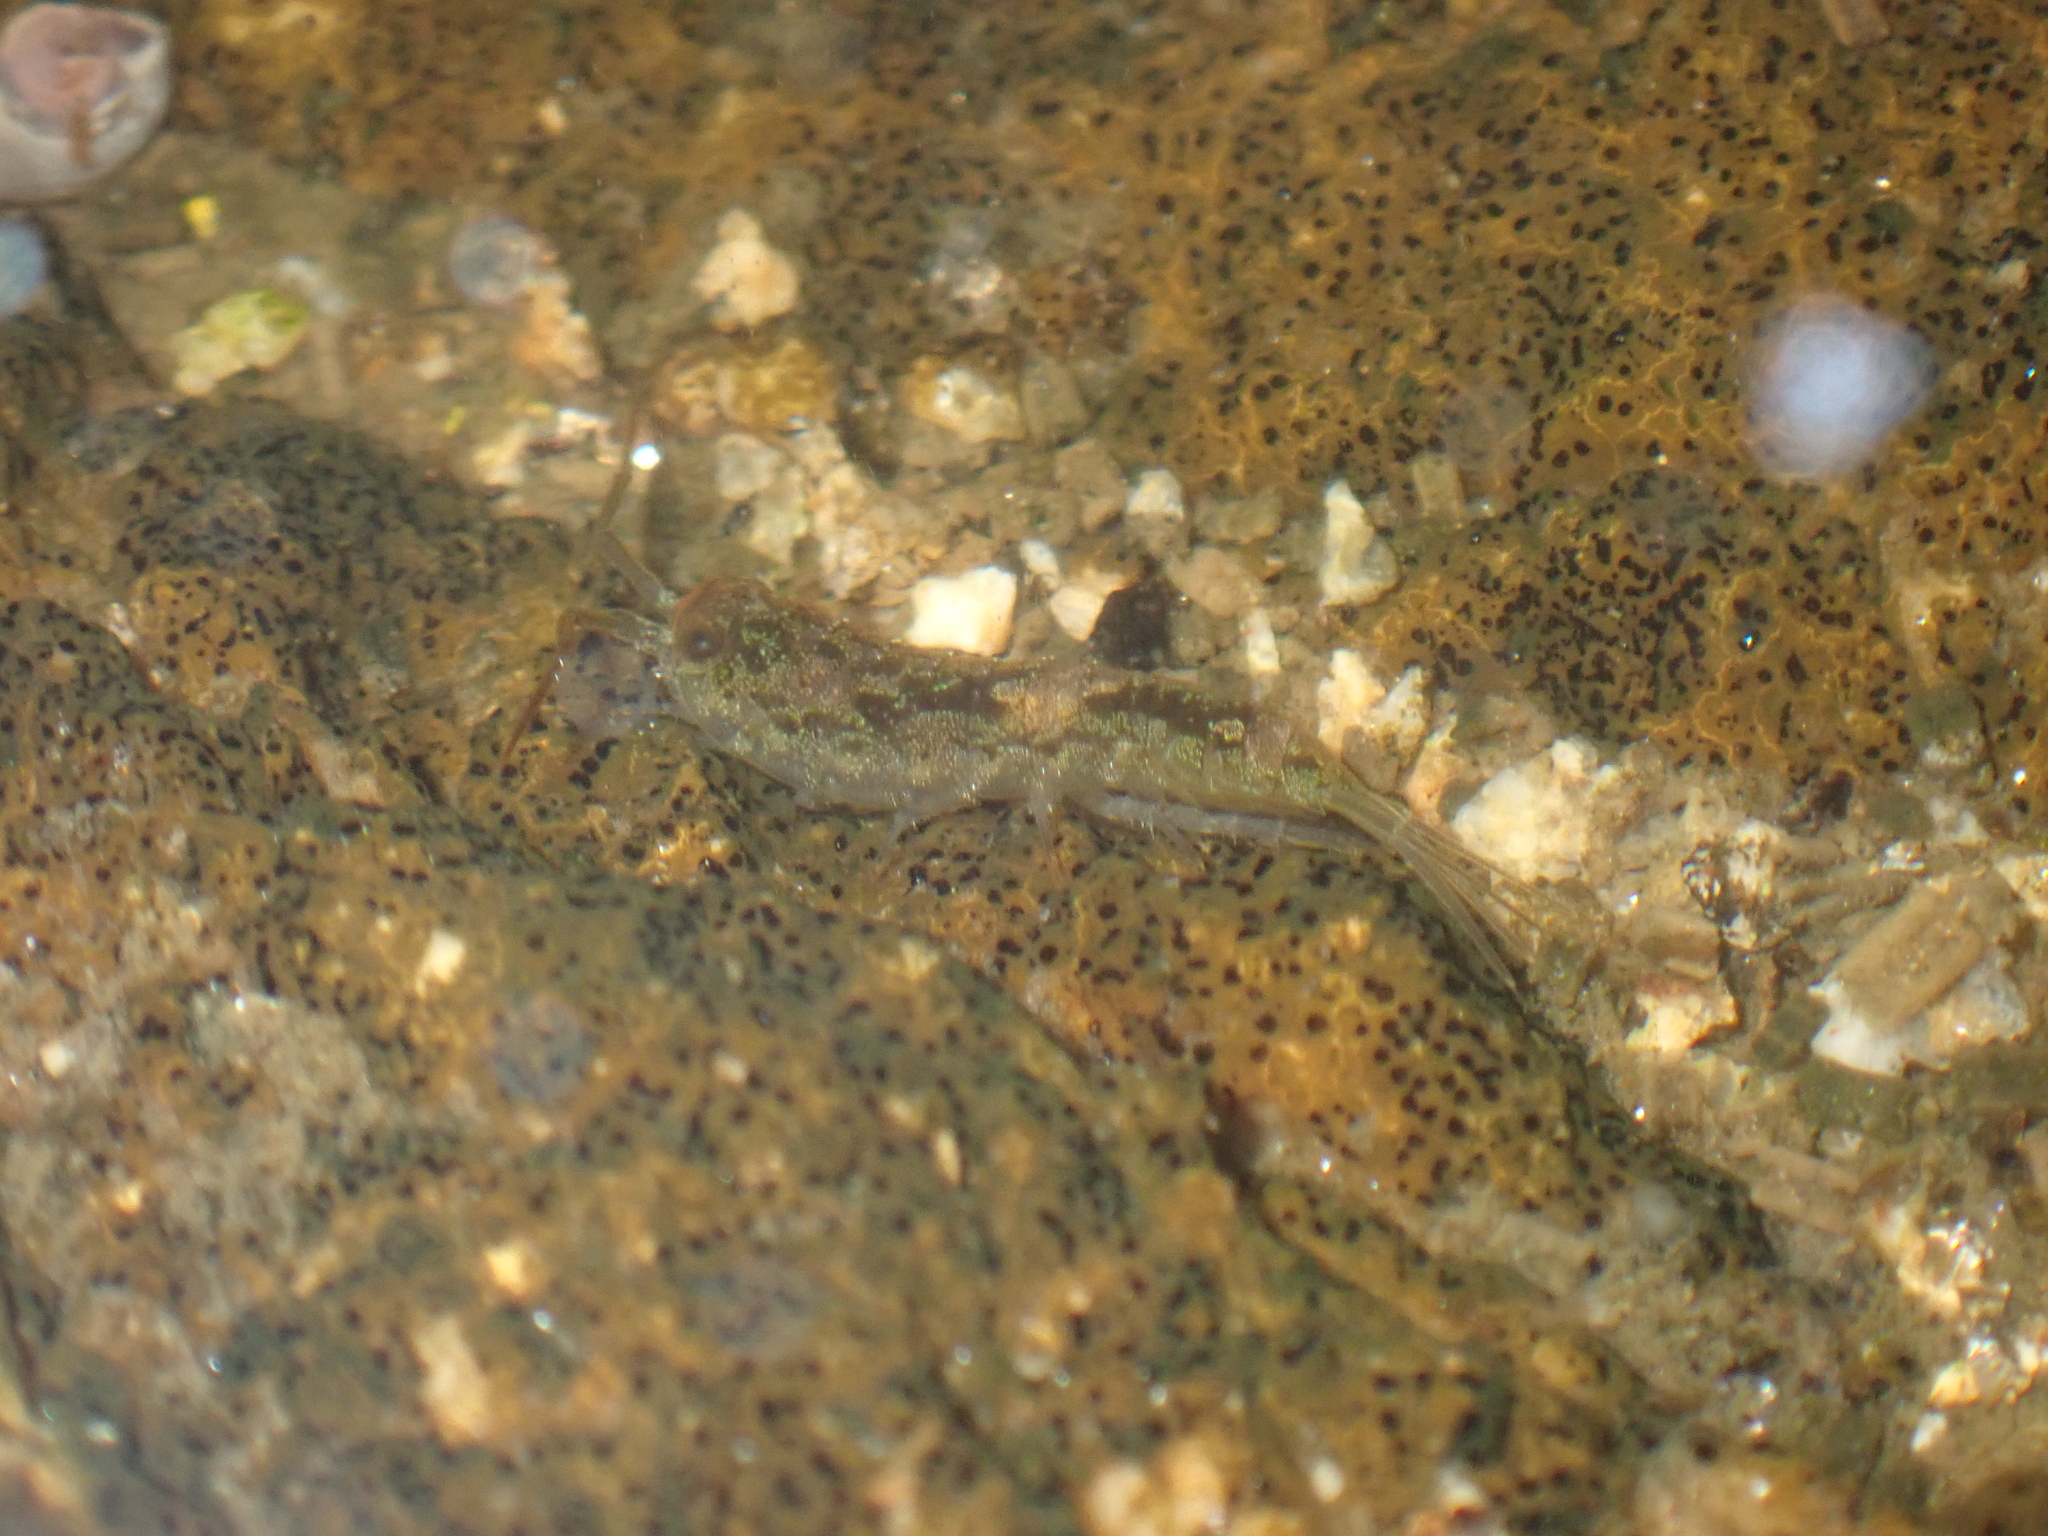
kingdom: Animalia
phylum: Arthropoda
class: Malacostraca
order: Isopoda
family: Ligiidae
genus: Ligia
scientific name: Ligia oceanica
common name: Sea slater
